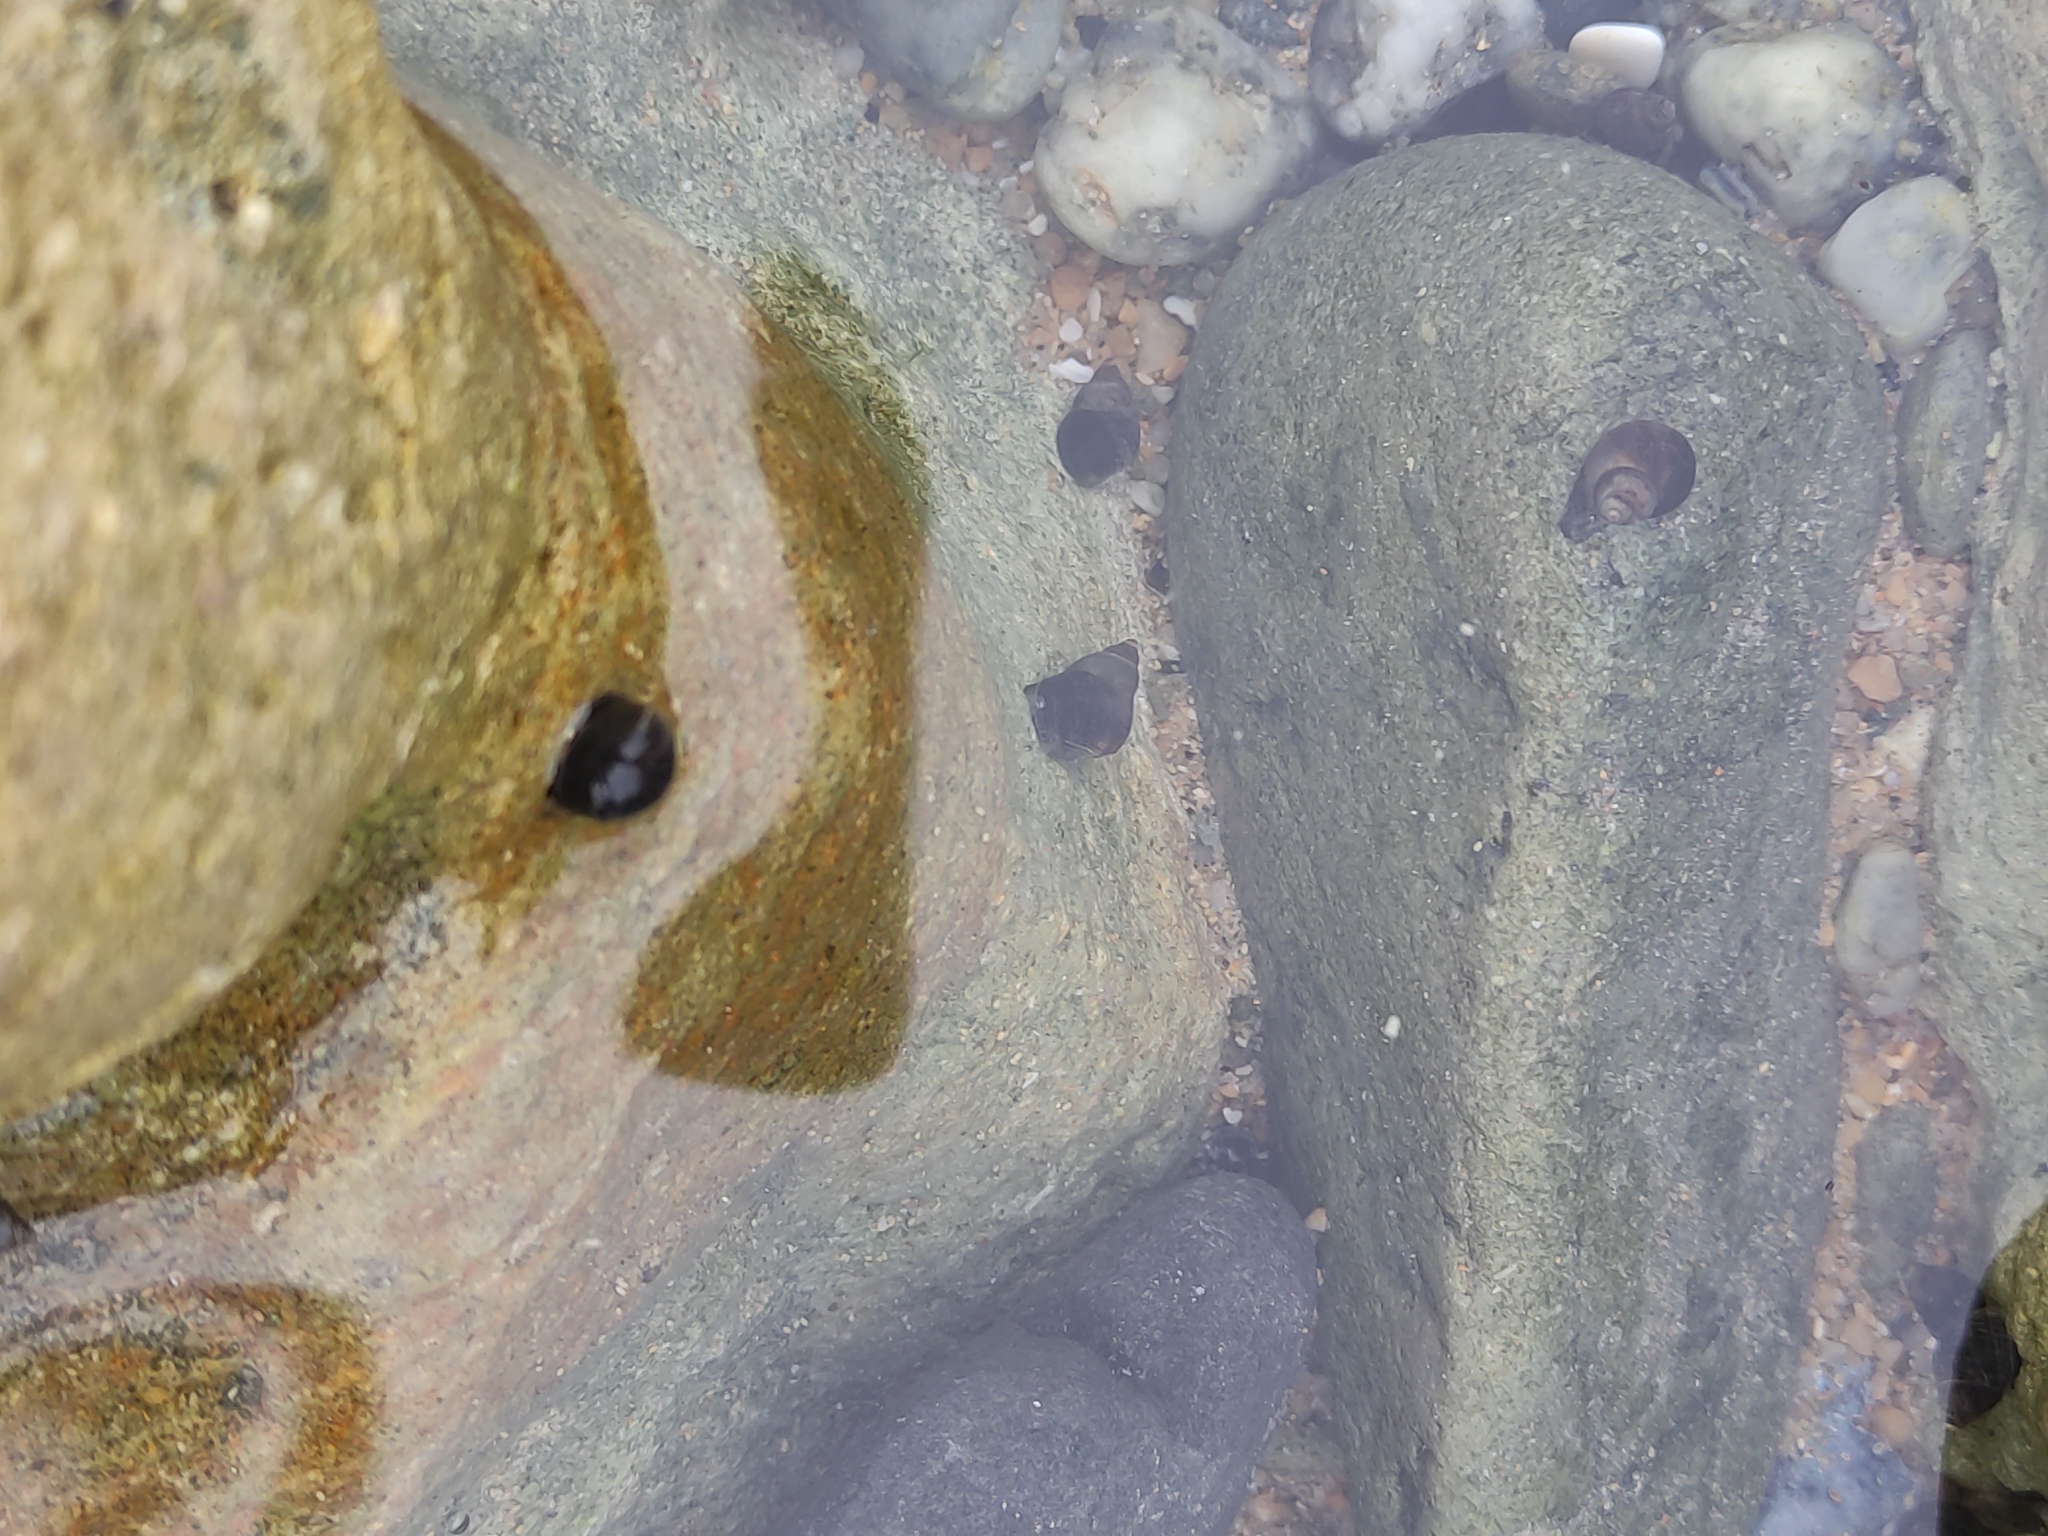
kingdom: Animalia
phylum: Mollusca
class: Gastropoda
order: Littorinimorpha
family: Littorinidae
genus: Austrolittorina
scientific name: Austrolittorina cincta
